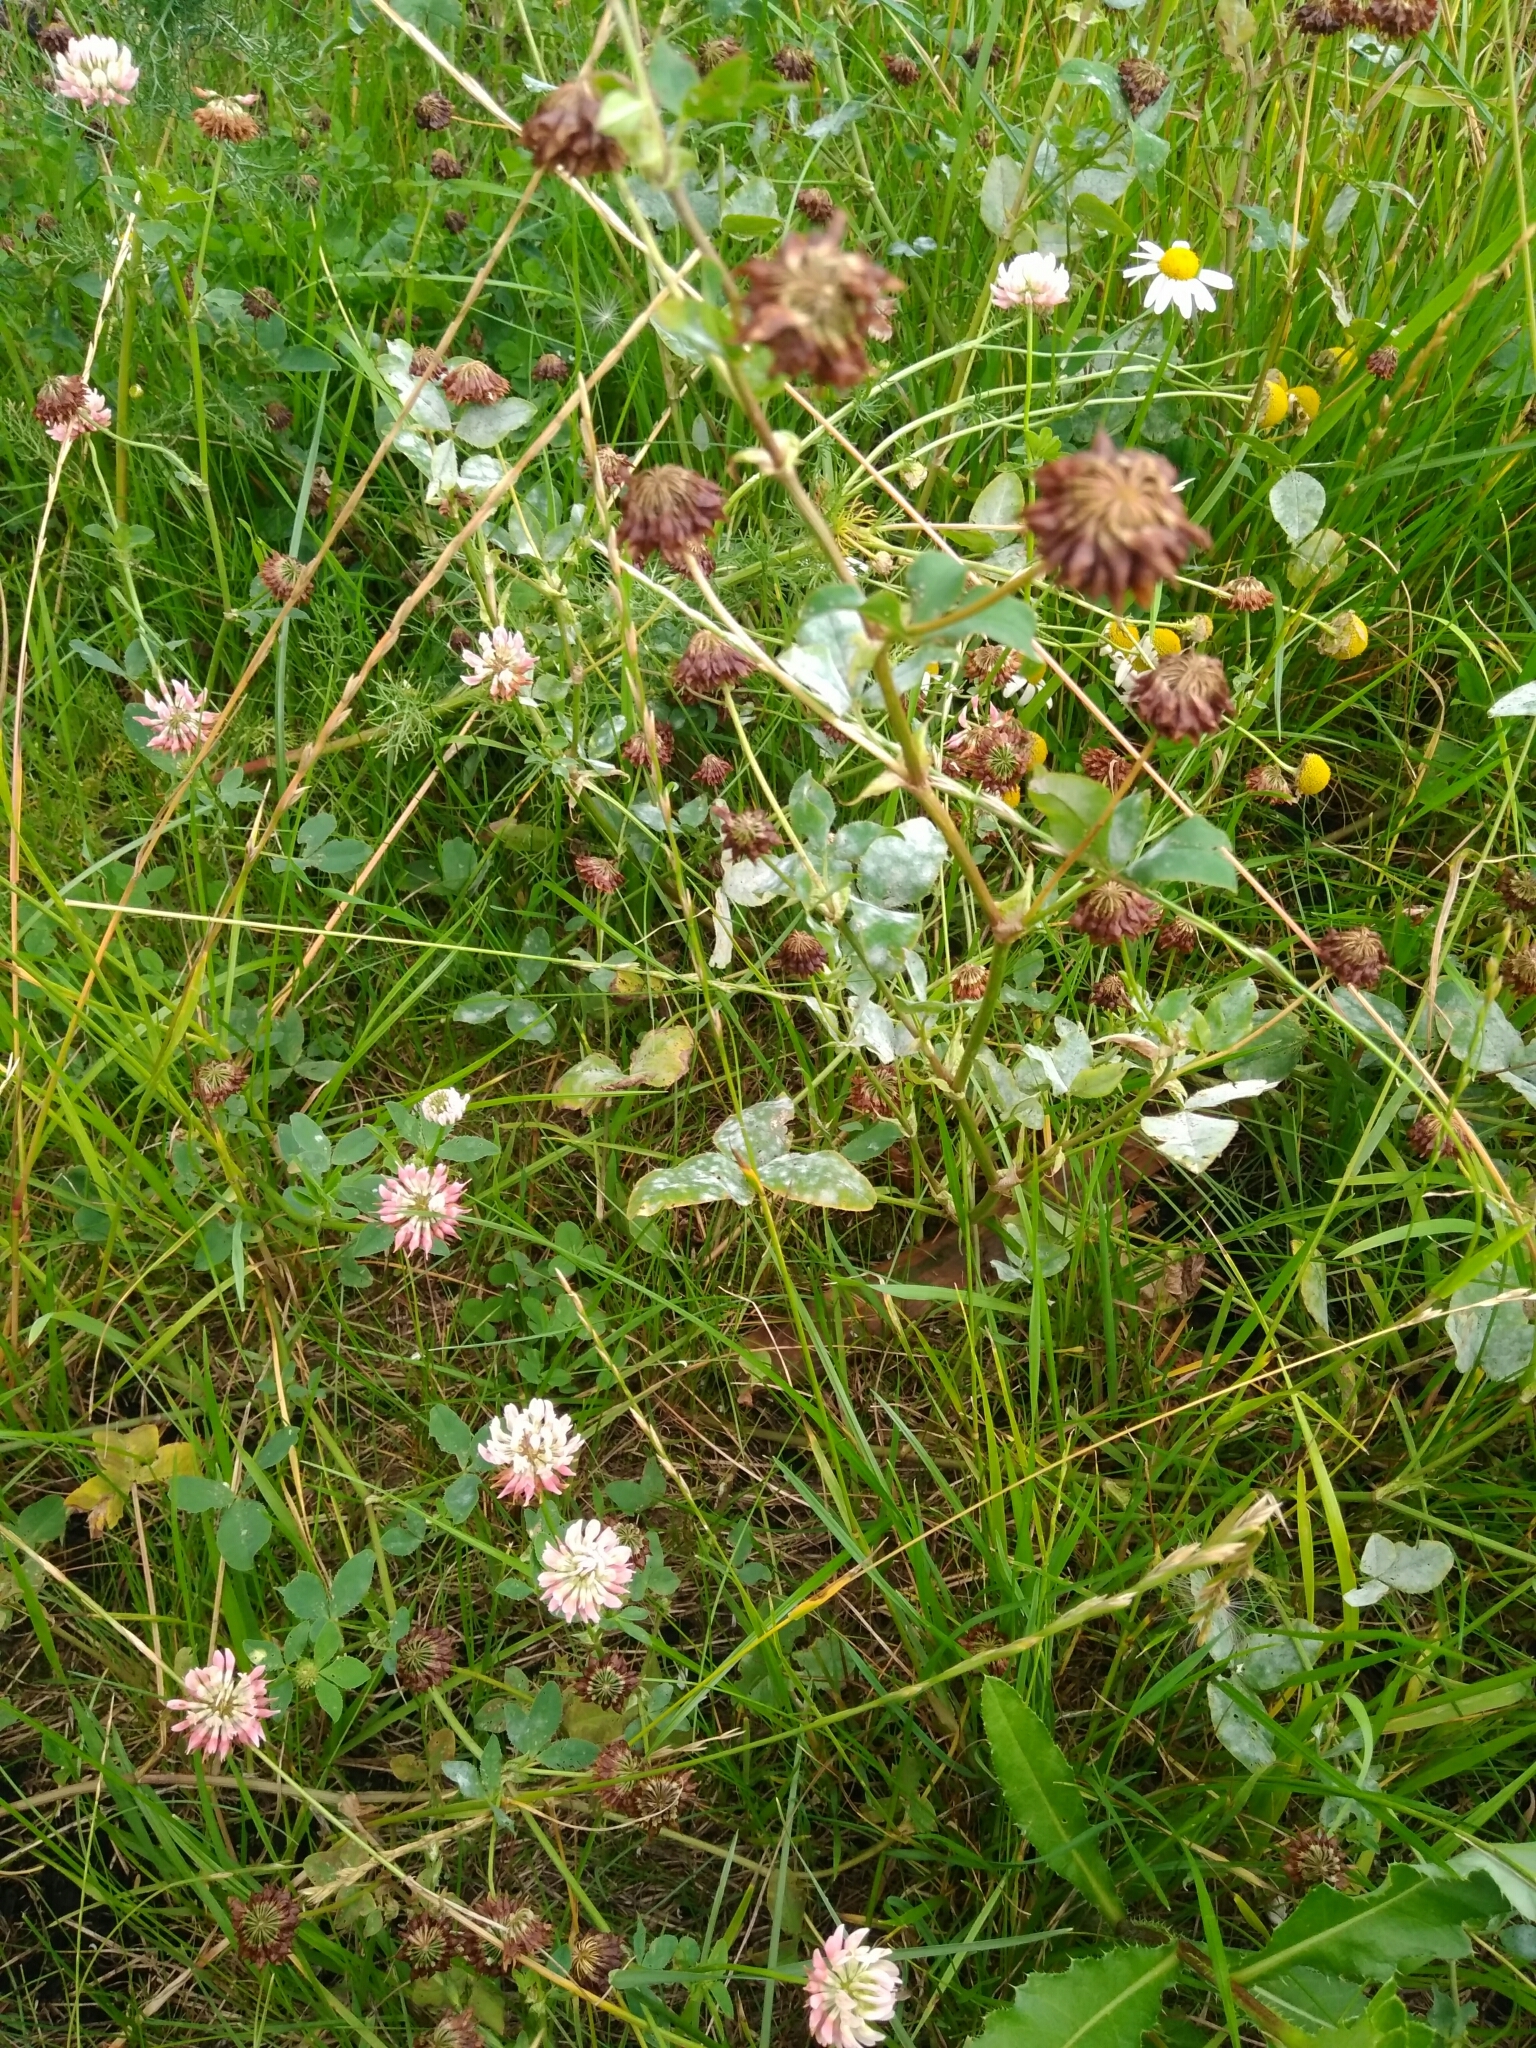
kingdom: Plantae
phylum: Tracheophyta
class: Magnoliopsida
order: Fabales
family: Fabaceae
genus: Trifolium
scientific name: Trifolium hybridum
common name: Alsike clover
